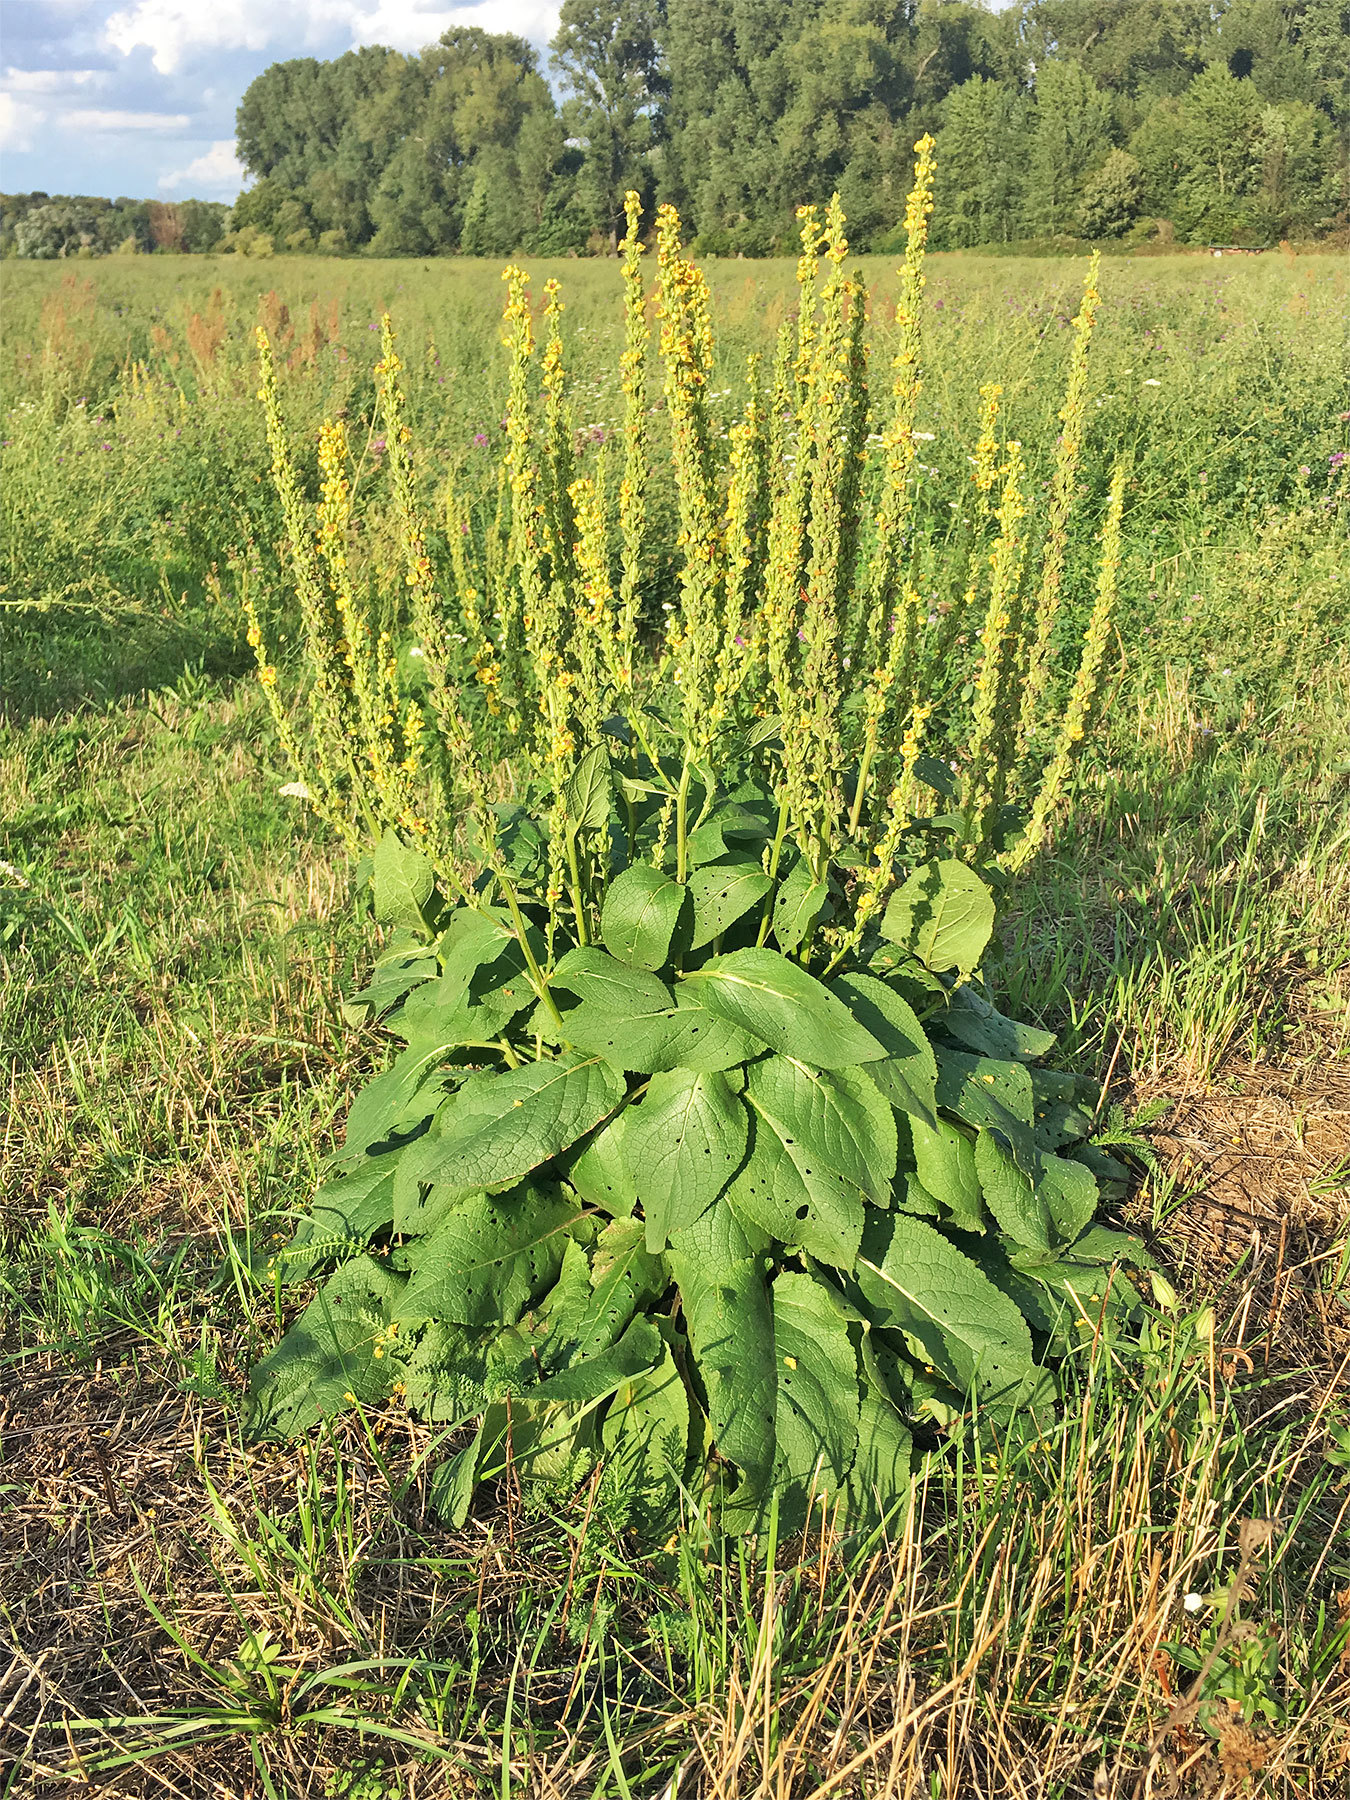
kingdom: Plantae
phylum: Tracheophyta
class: Magnoliopsida
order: Lamiales
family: Scrophulariaceae
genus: Verbascum
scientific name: Verbascum nigrum
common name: Dark mullein
